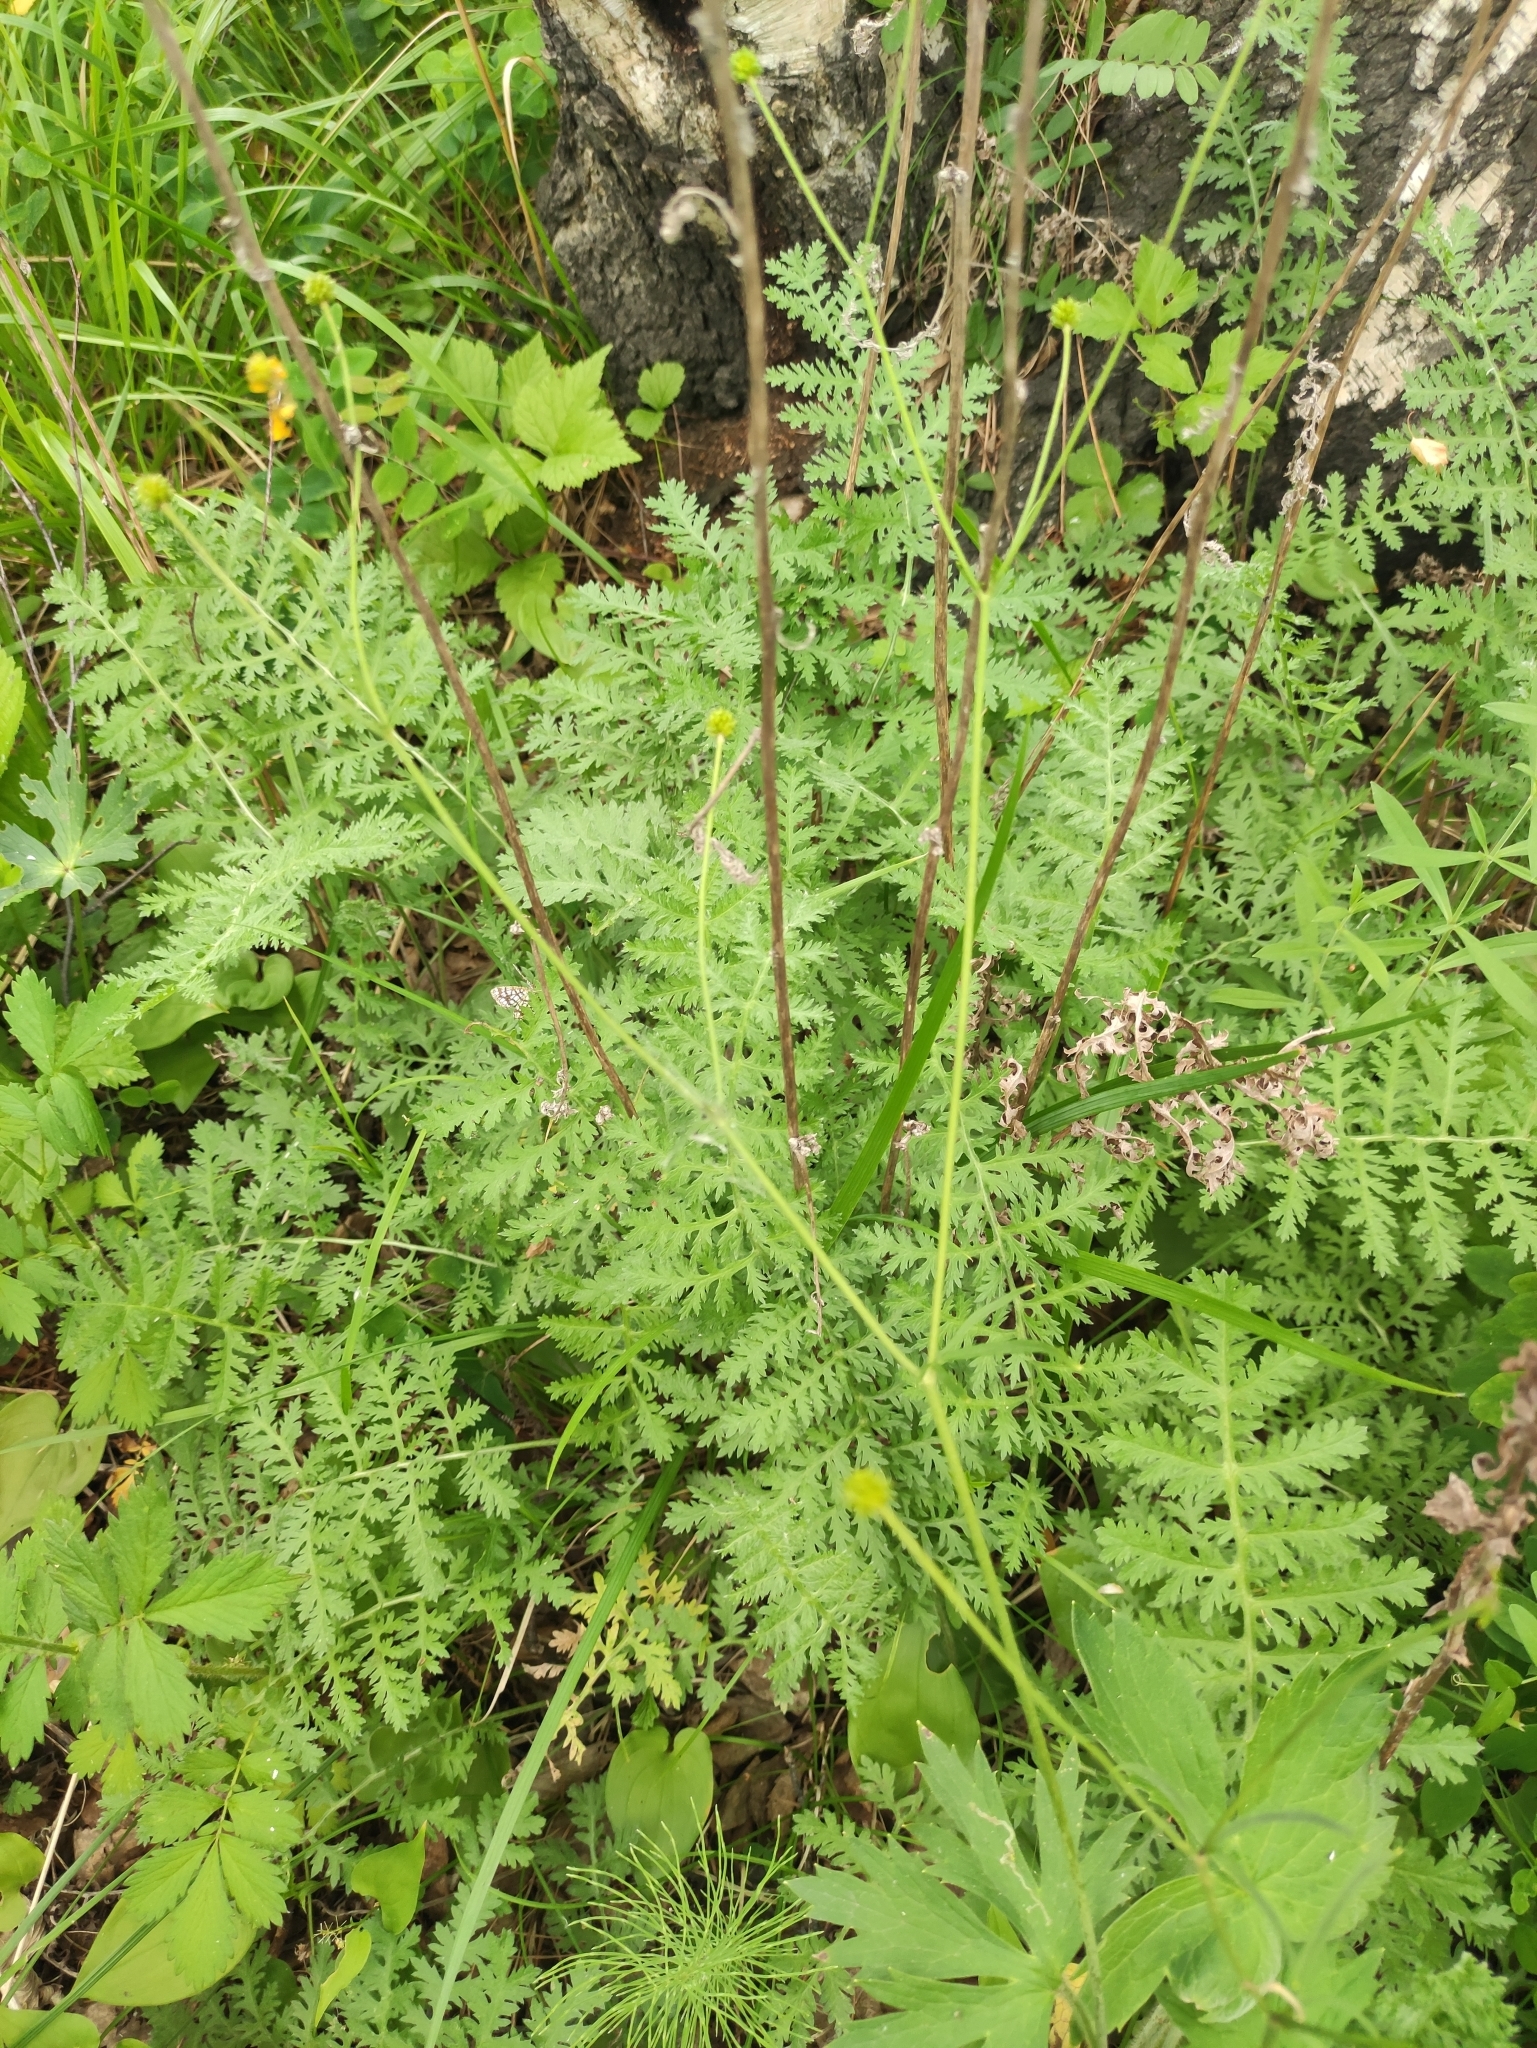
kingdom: Plantae
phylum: Tracheophyta
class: Magnoliopsida
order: Asterales
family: Asteraceae
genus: Artemisia
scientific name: Artemisia tanacetifolia
